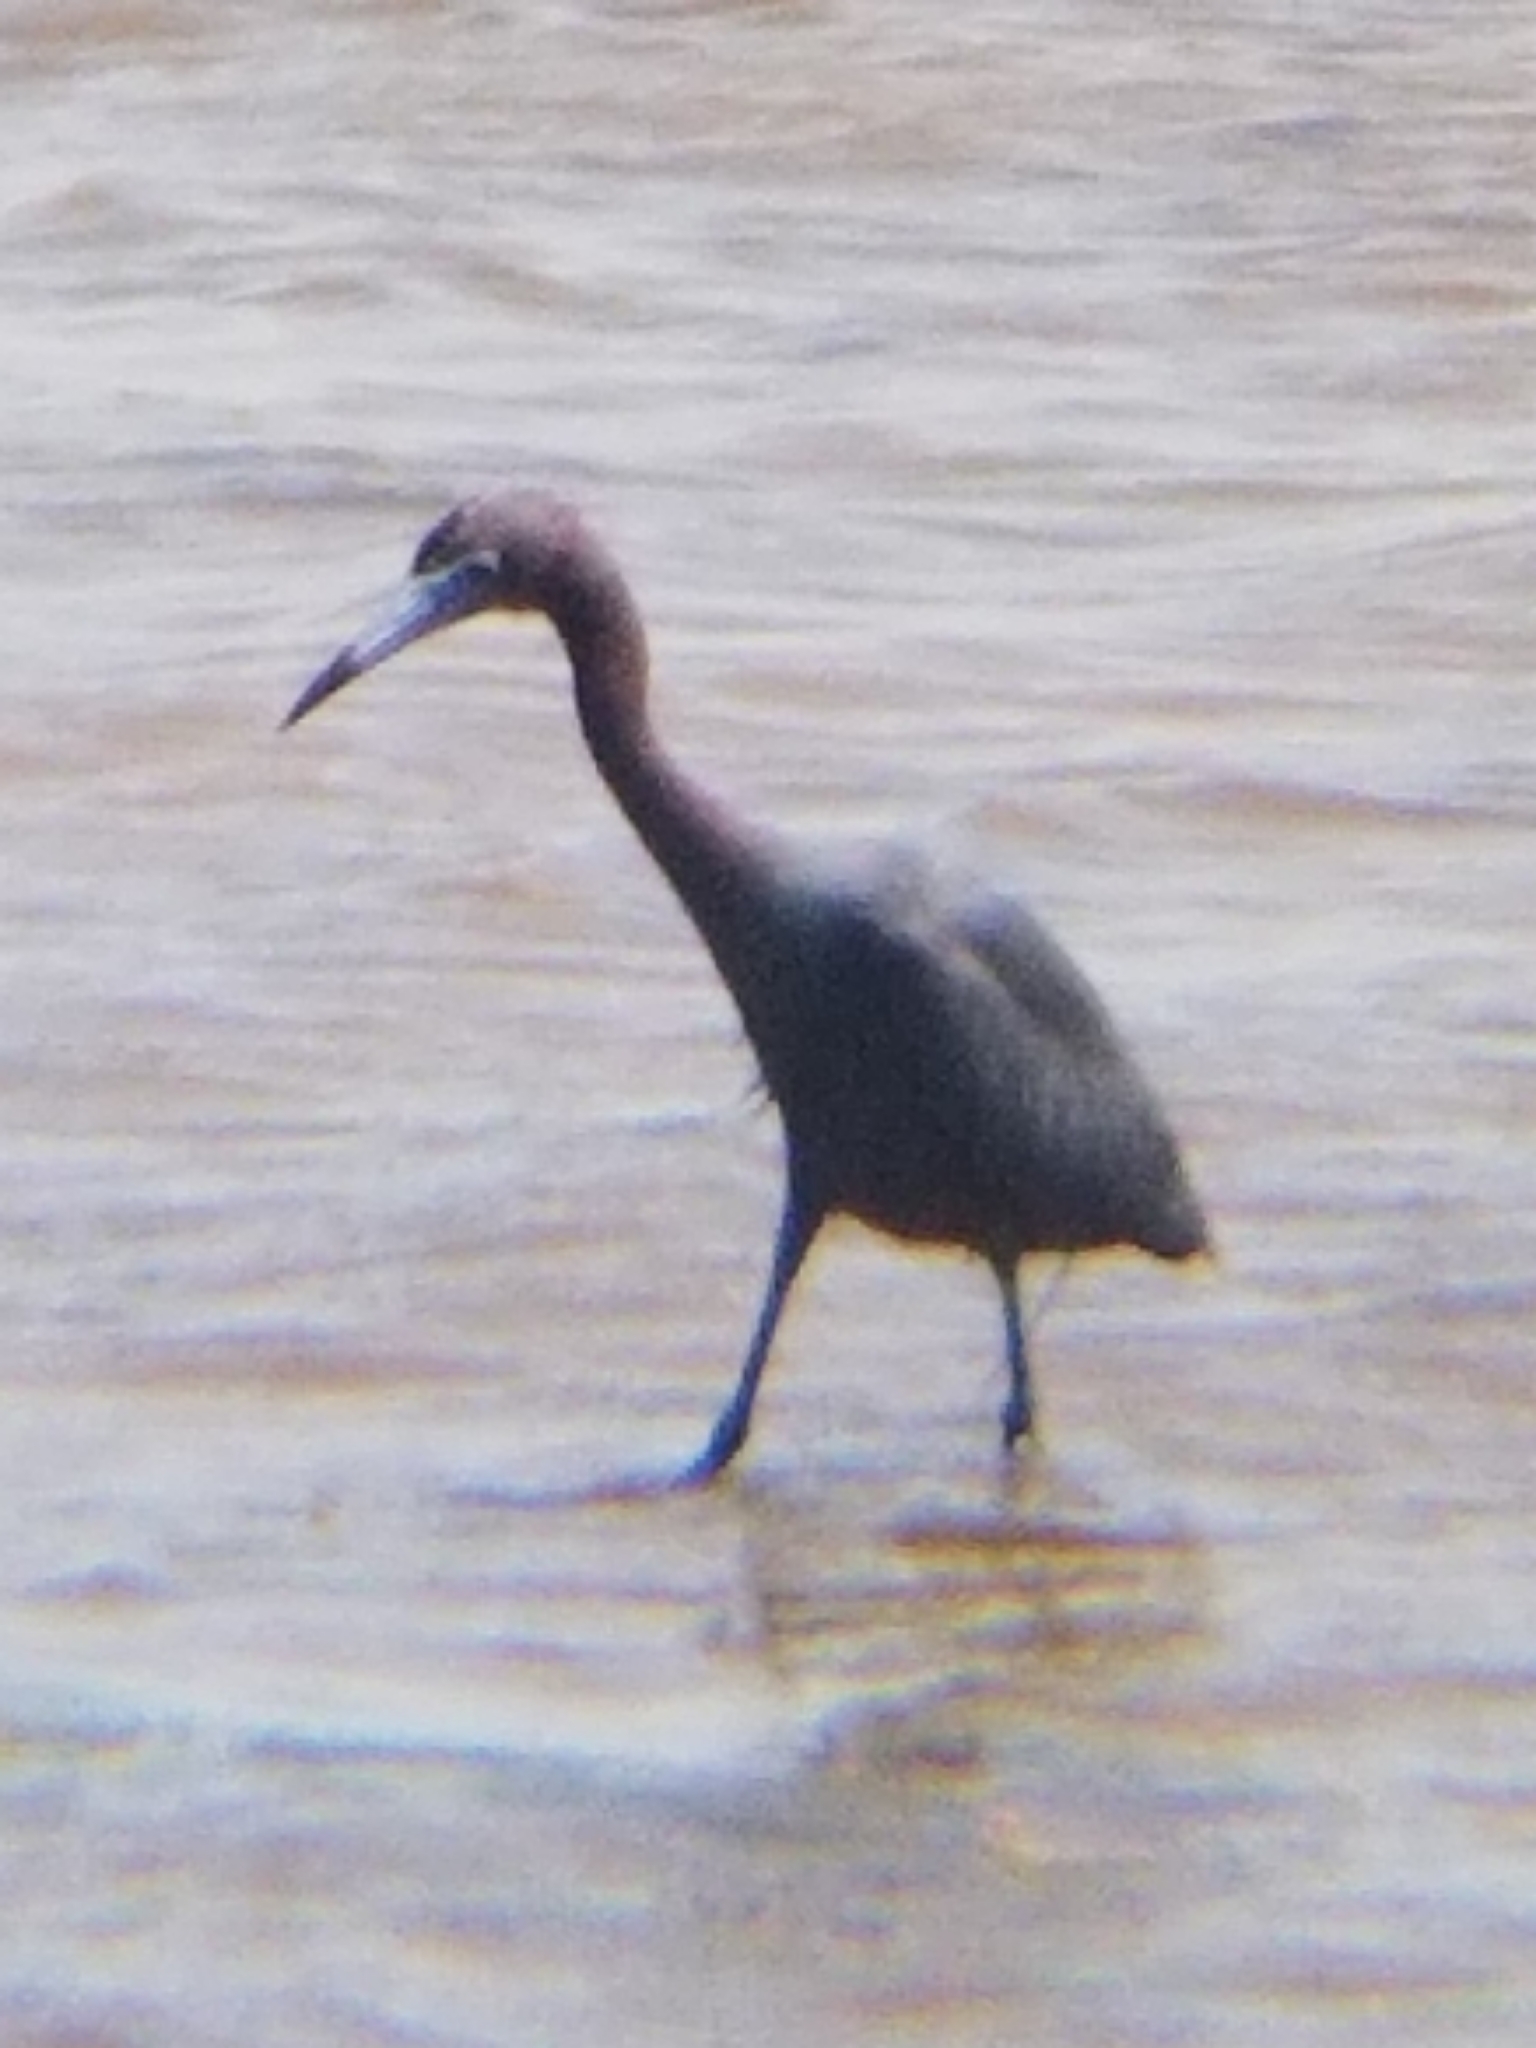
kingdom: Animalia
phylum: Chordata
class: Aves
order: Pelecaniformes
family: Ardeidae
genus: Egretta
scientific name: Egretta caerulea
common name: Little blue heron
